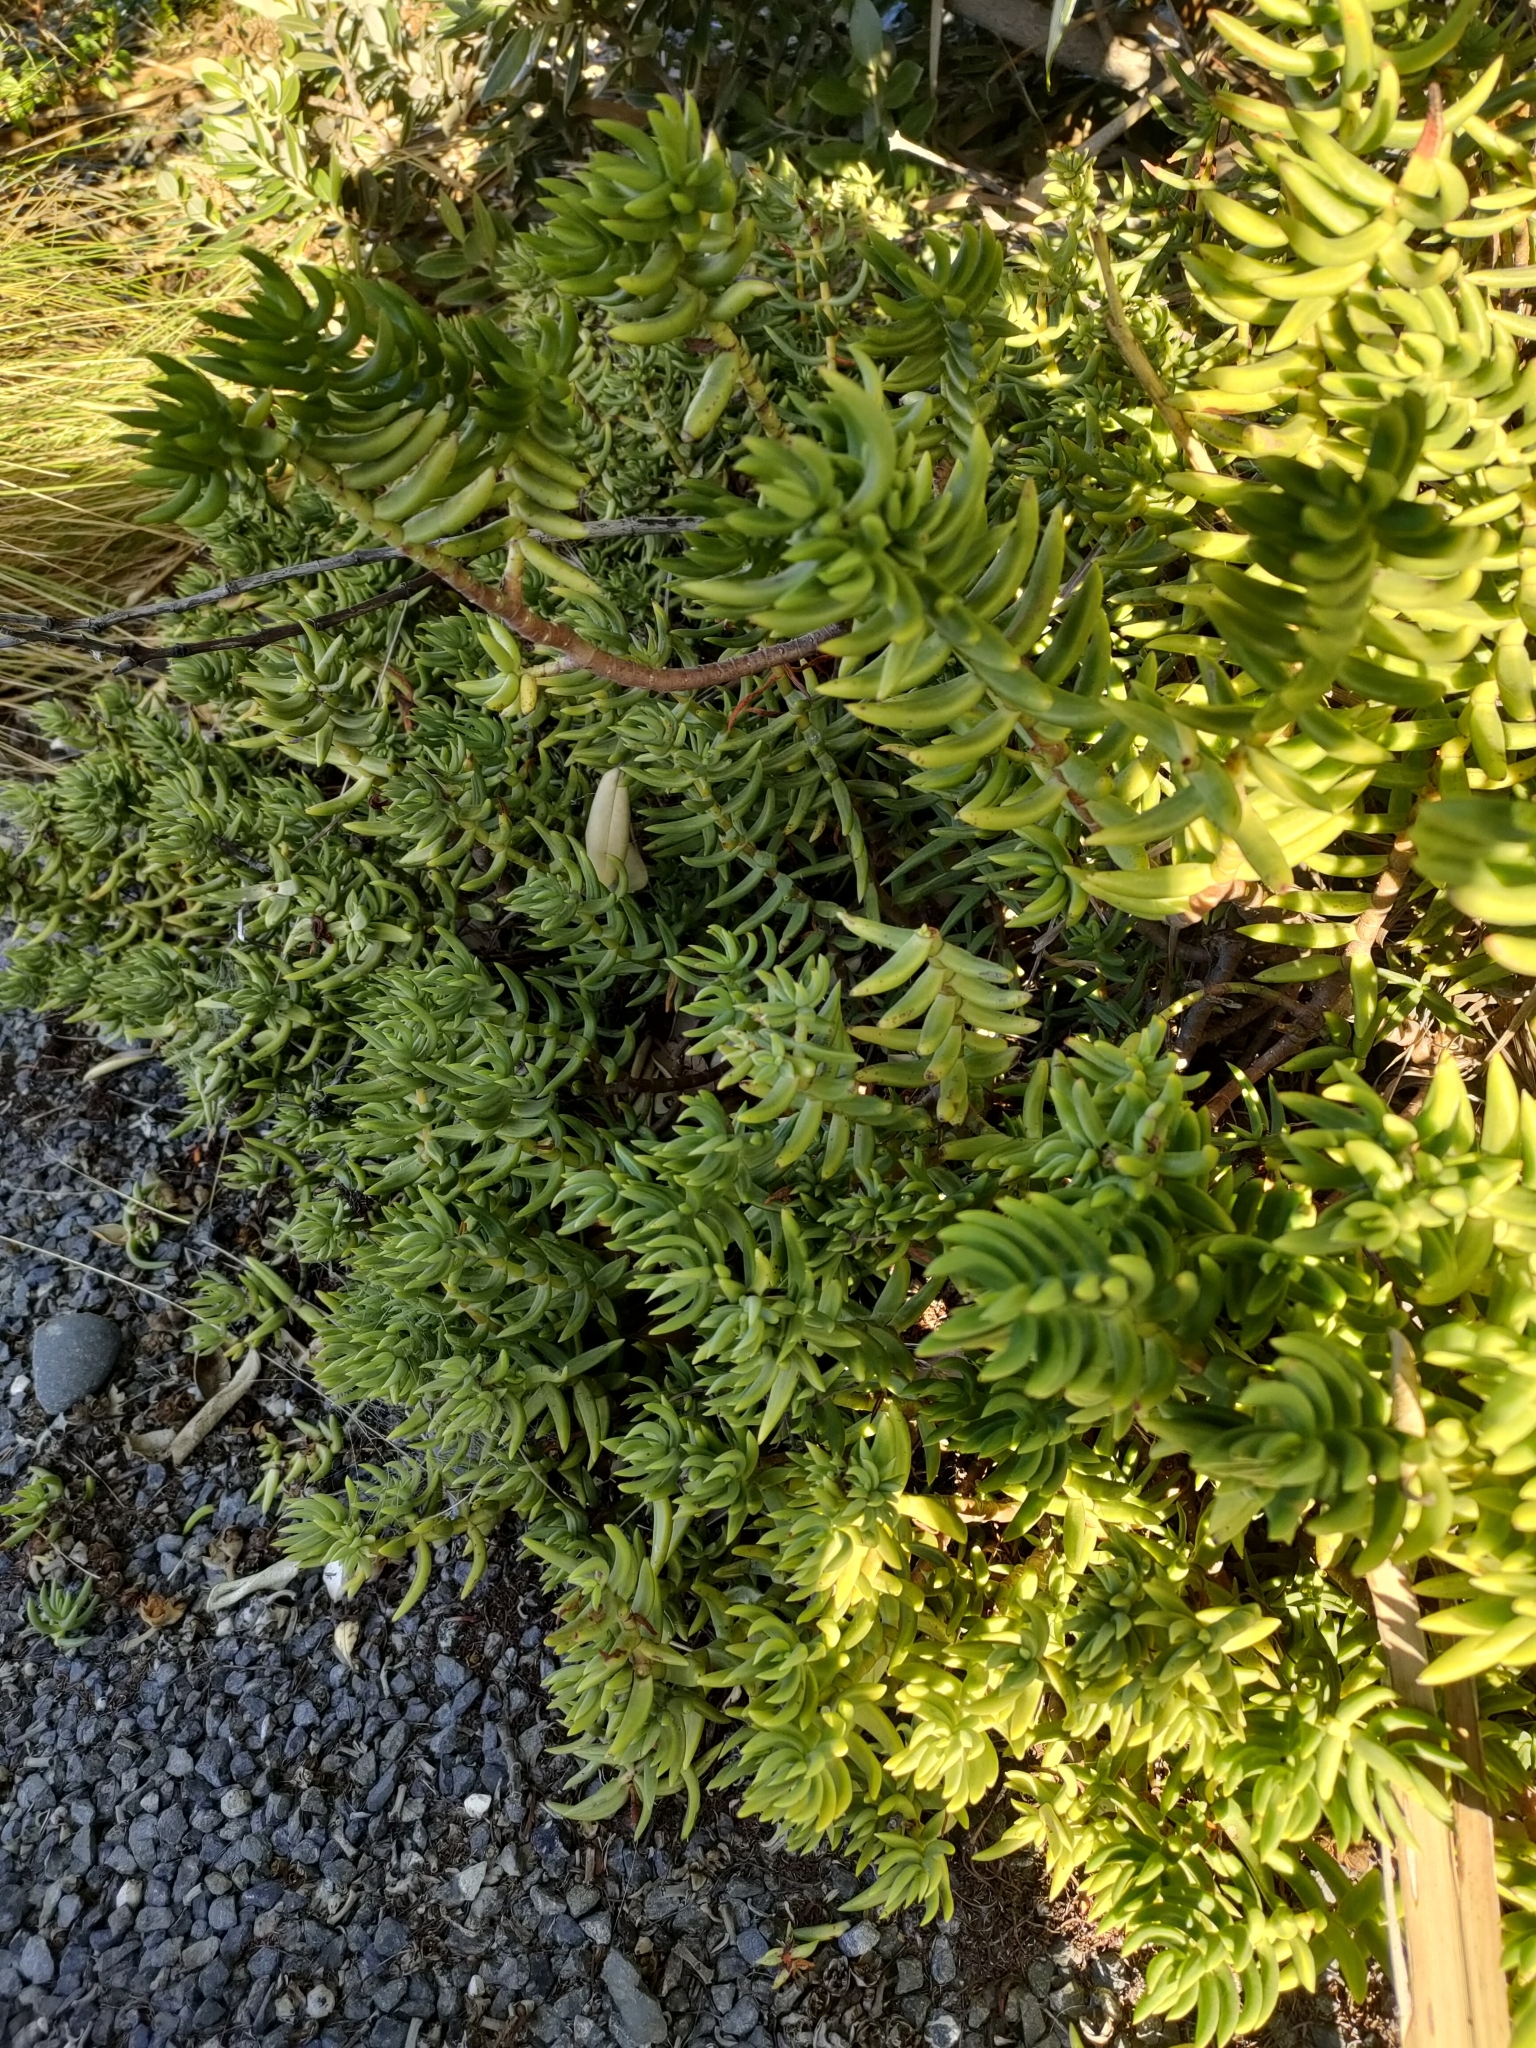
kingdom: Plantae
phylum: Tracheophyta
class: Magnoliopsida
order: Saxifragales
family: Crassulaceae
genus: Crassula
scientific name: Crassula tetragona
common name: Pygmyweed
